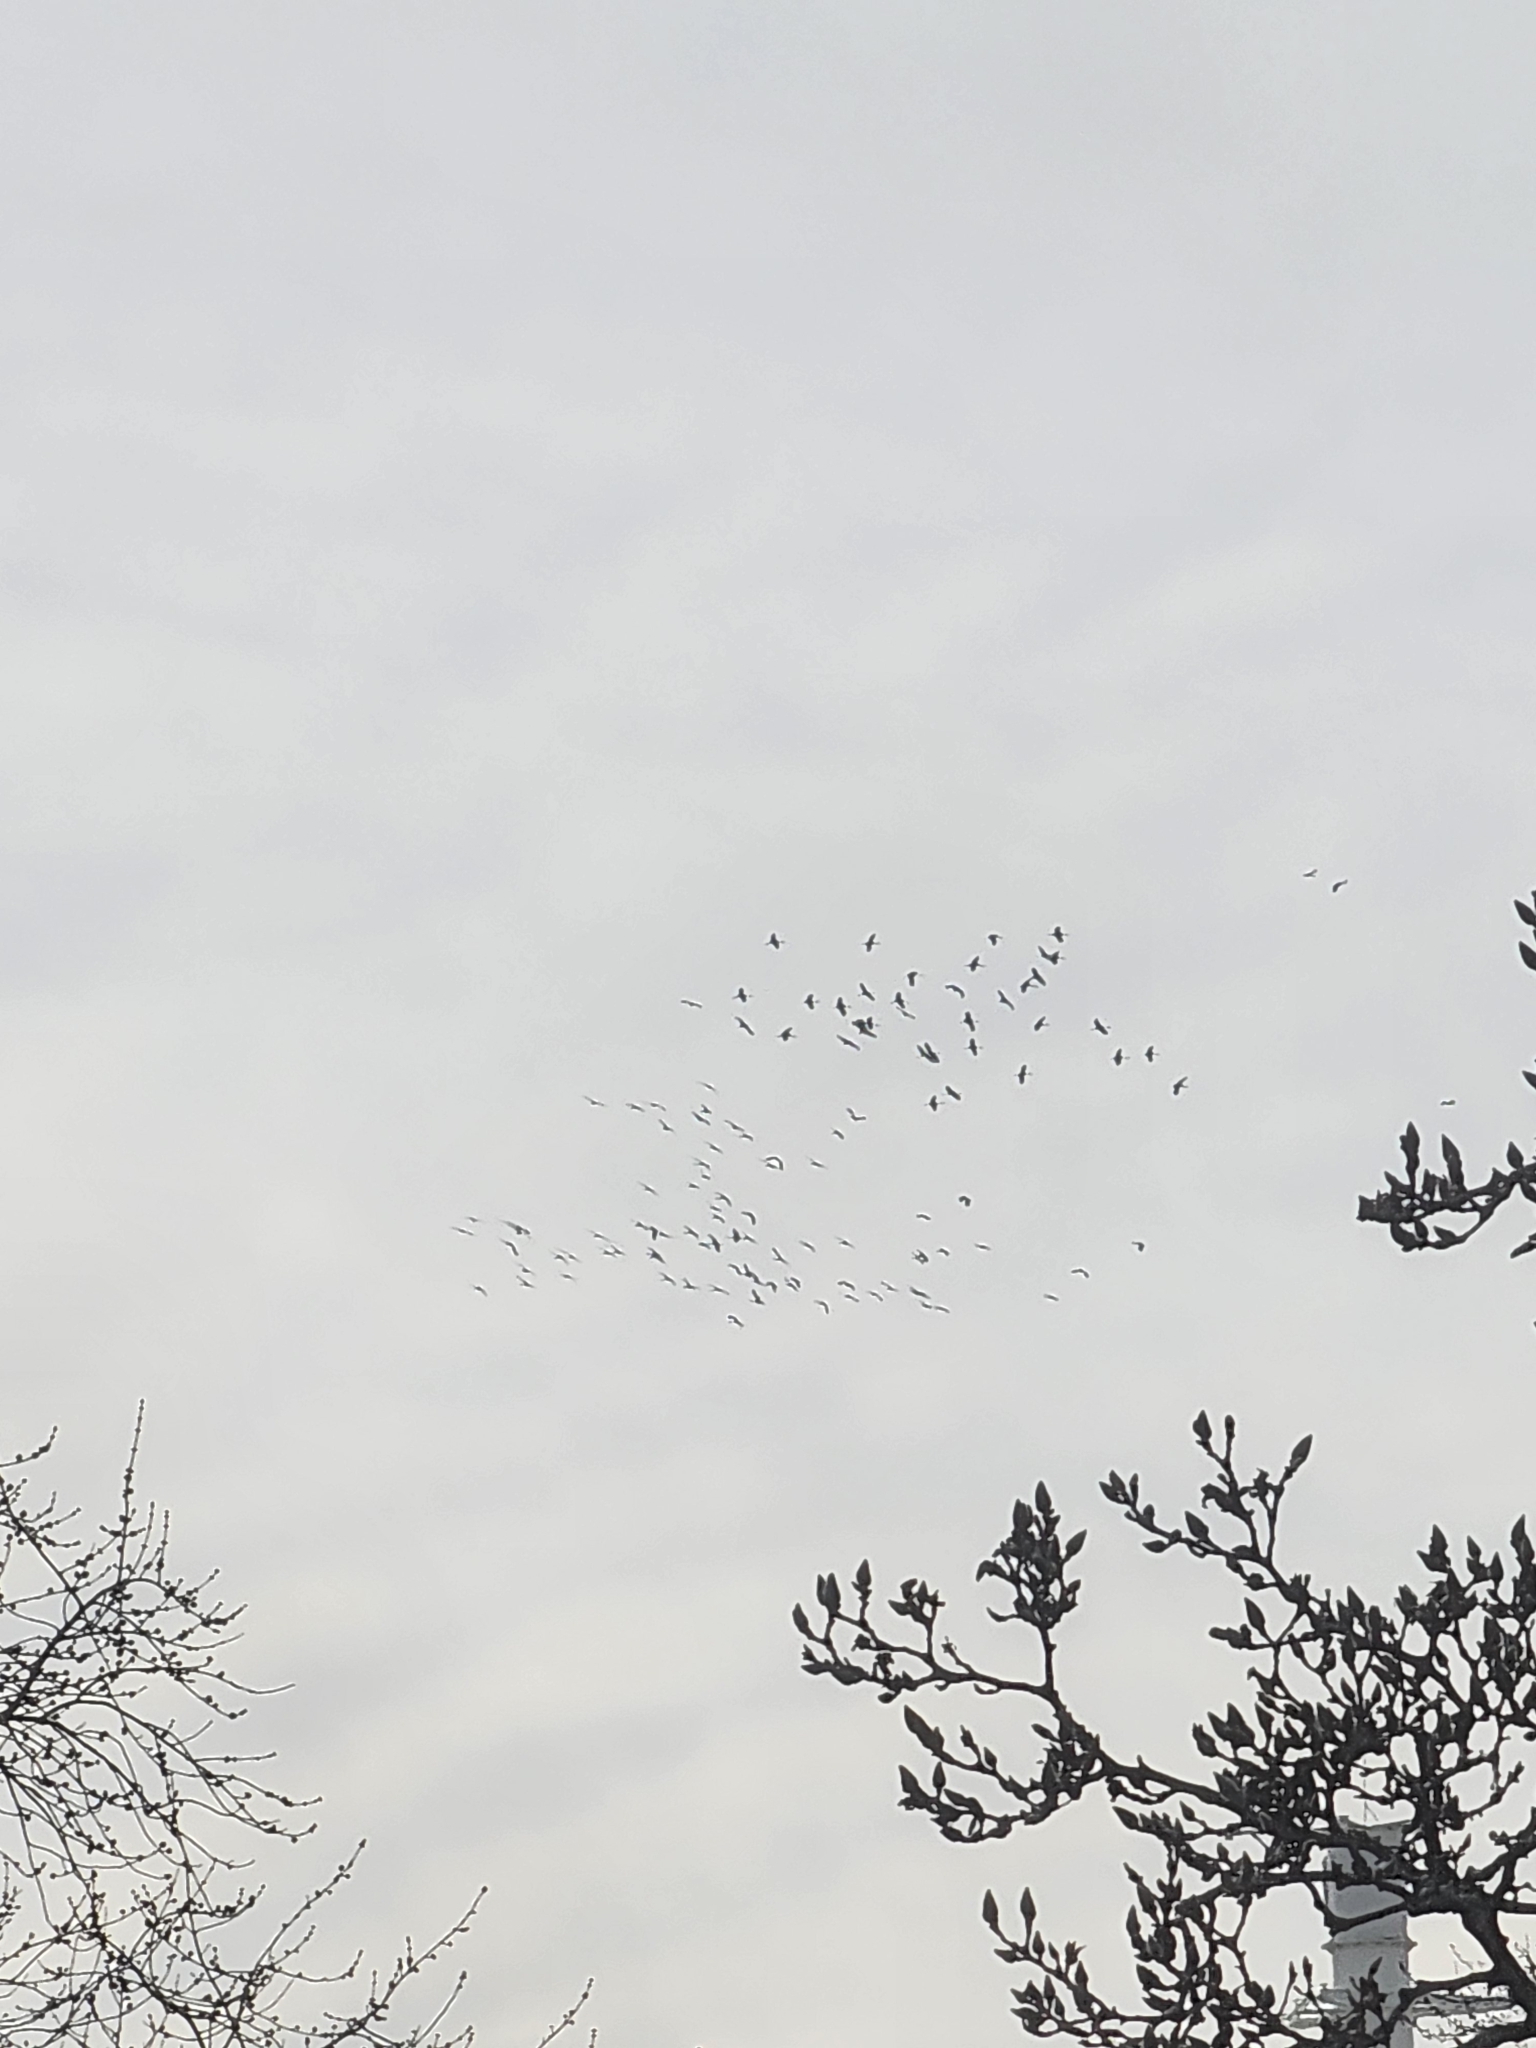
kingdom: Animalia
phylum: Chordata
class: Aves
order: Gruiformes
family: Gruidae
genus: Grus
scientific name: Grus canadensis
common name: Sandhill crane
